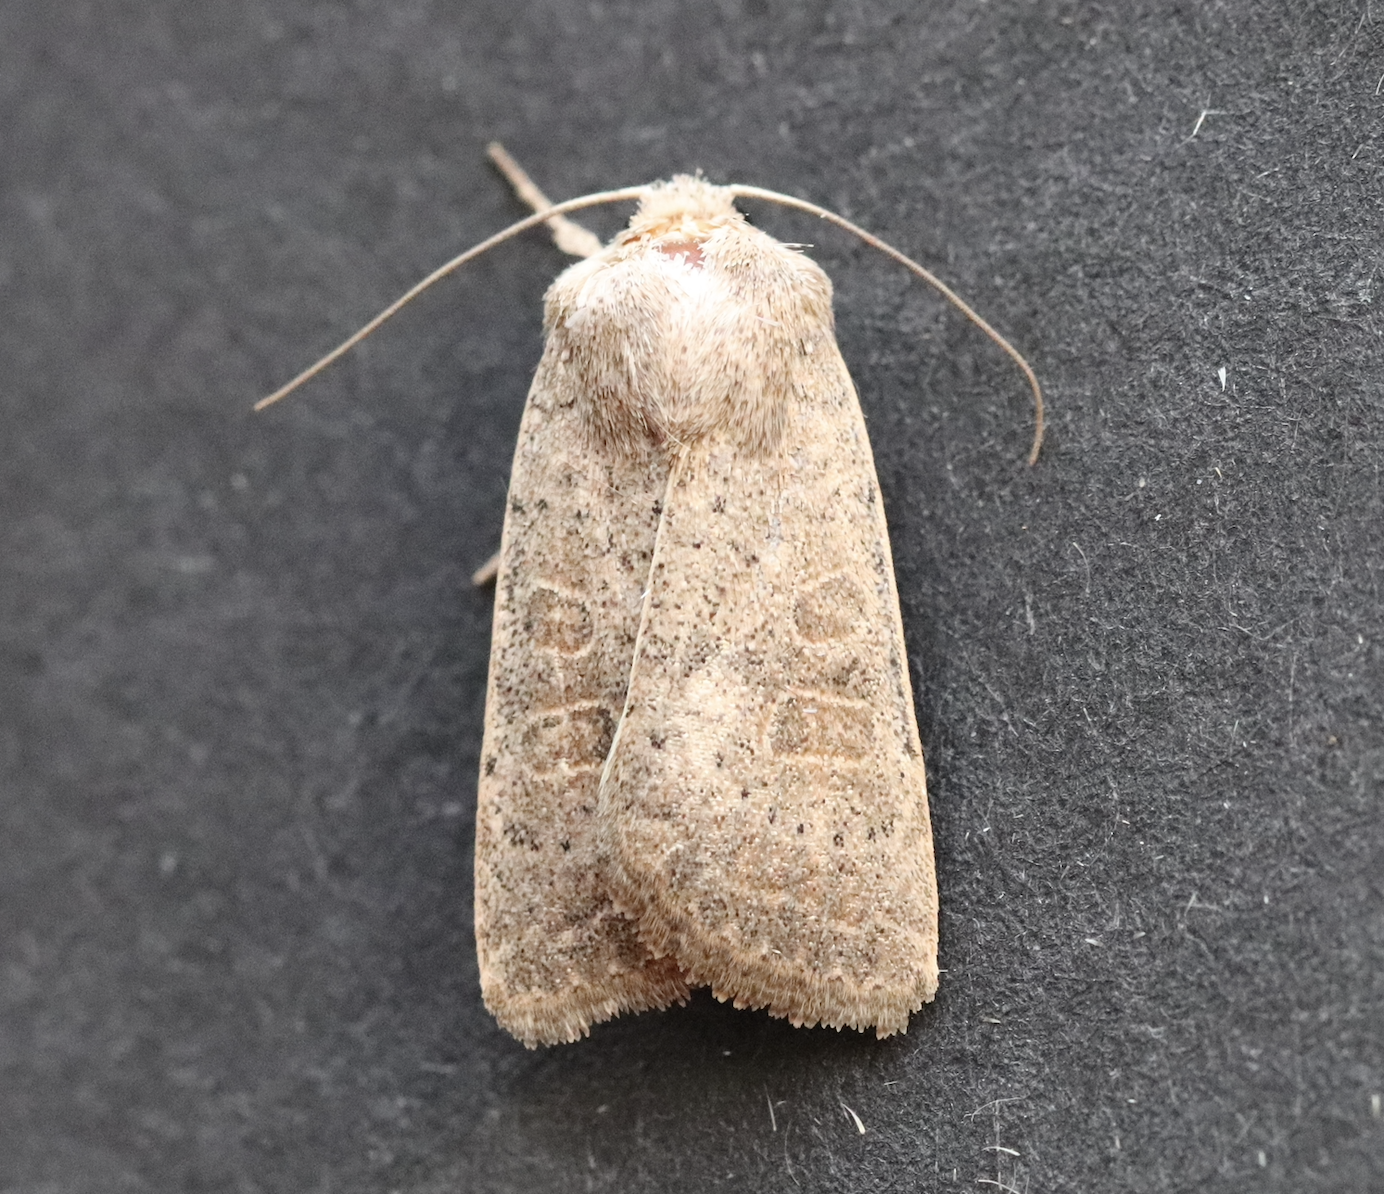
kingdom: Animalia
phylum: Arthropoda
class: Insecta
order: Lepidoptera
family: Noctuidae
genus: Hoplodrina
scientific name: Hoplodrina ambigua
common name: Vine's rustic
